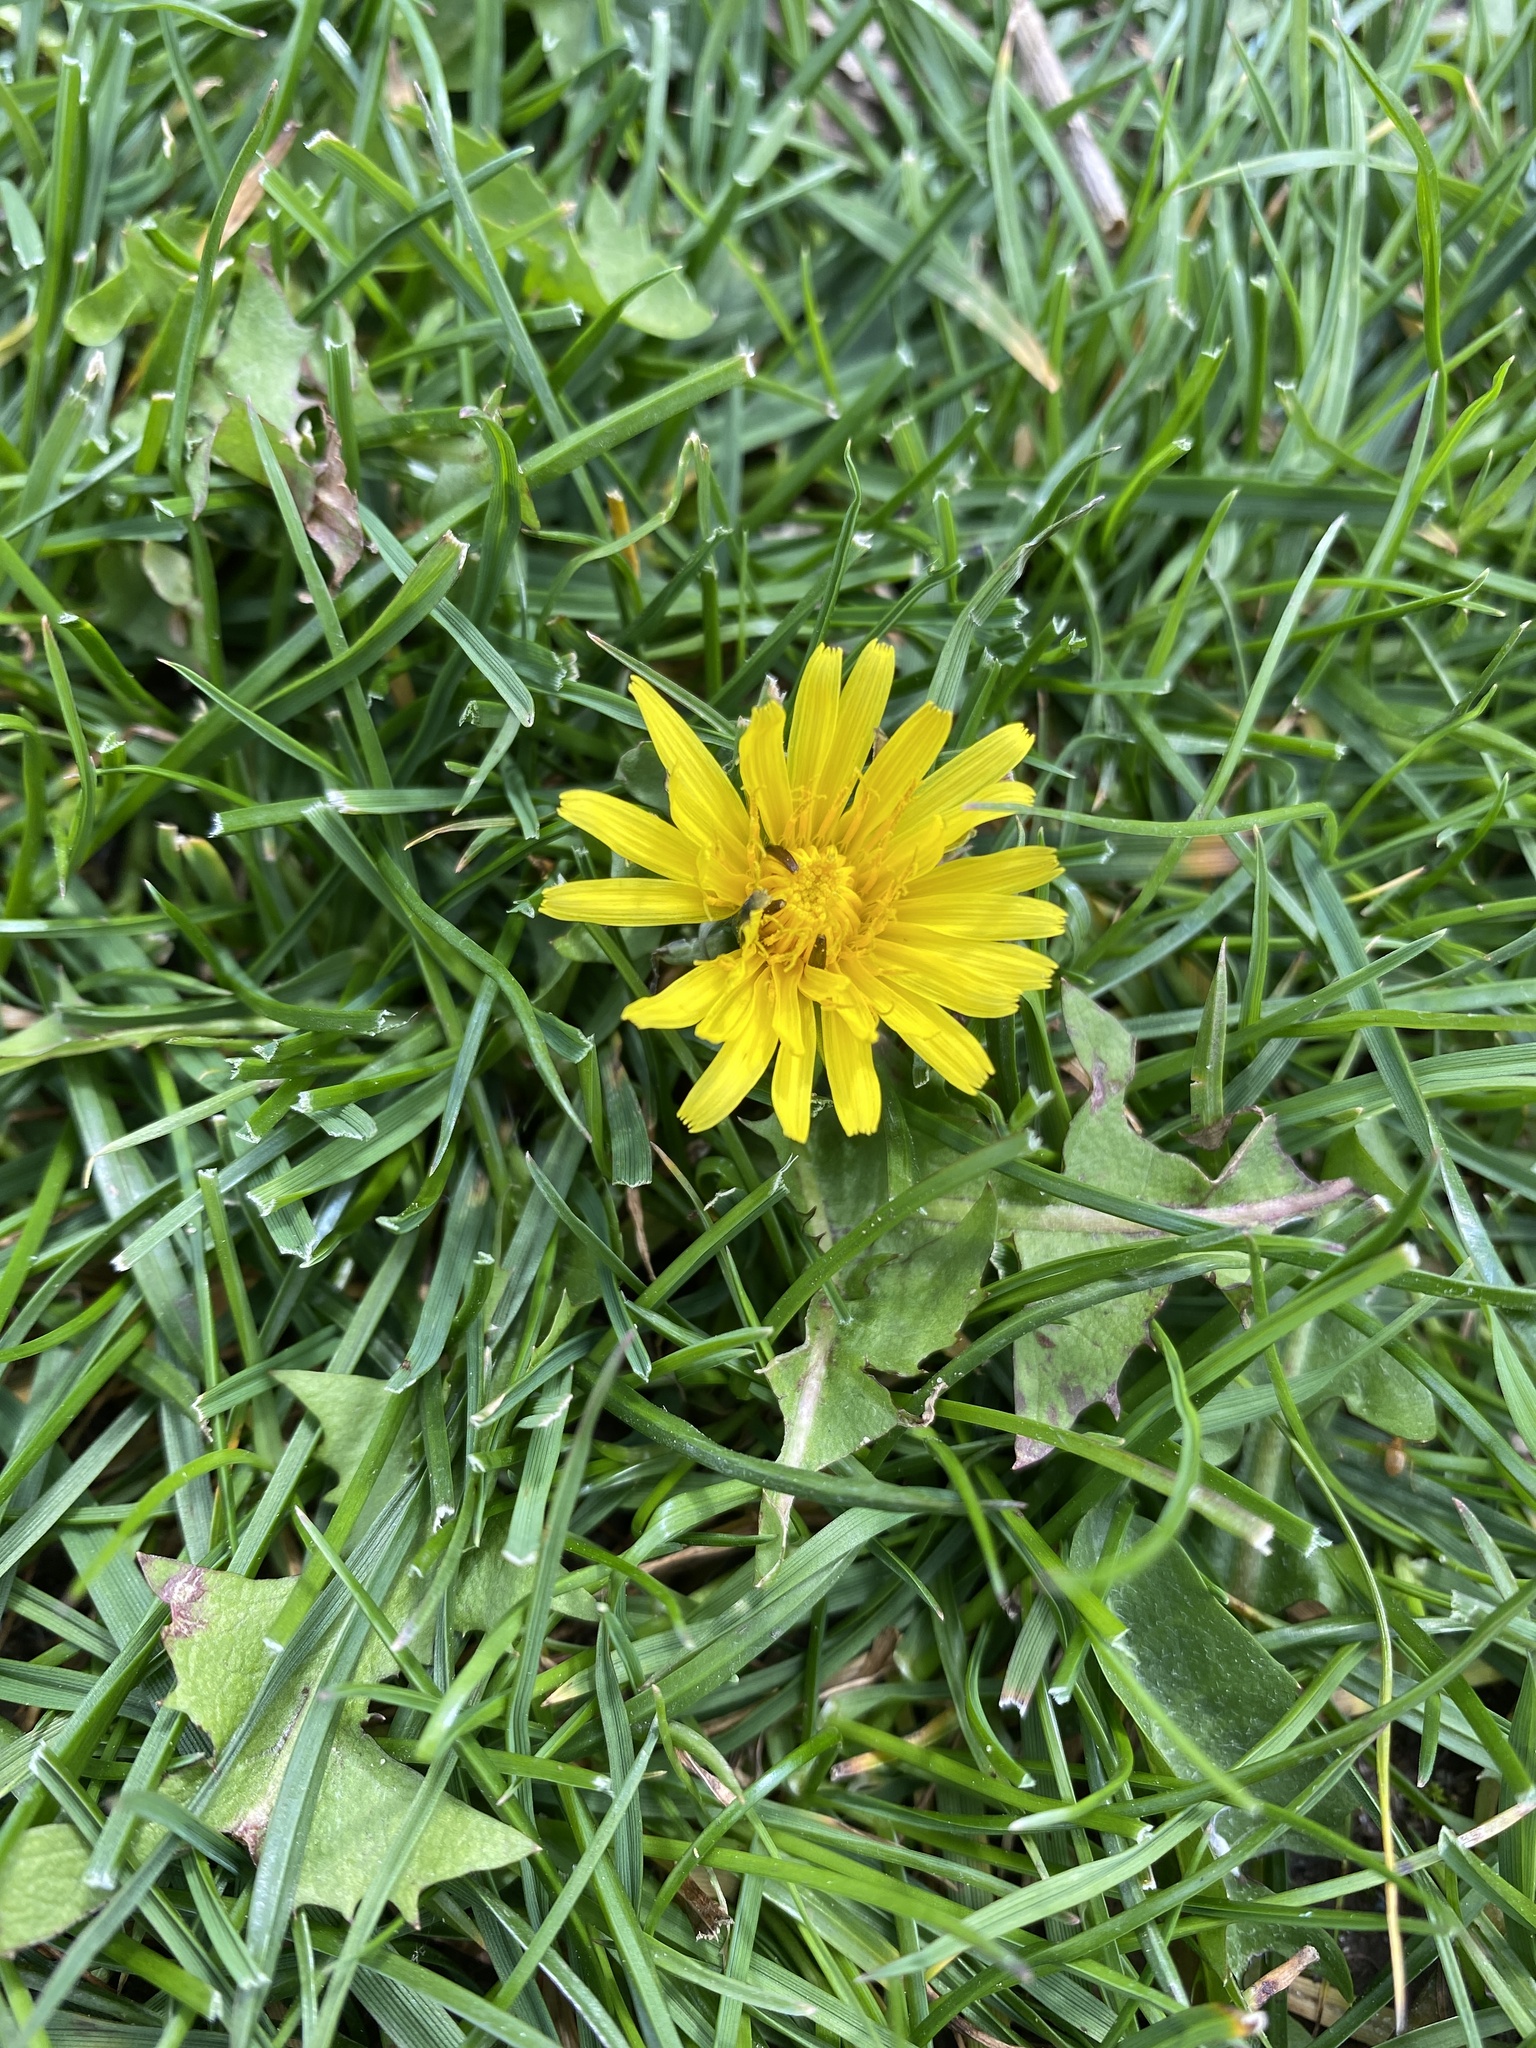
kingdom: Plantae
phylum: Tracheophyta
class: Magnoliopsida
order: Asterales
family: Asteraceae
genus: Taraxacum
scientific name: Taraxacum officinale
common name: Common dandelion
